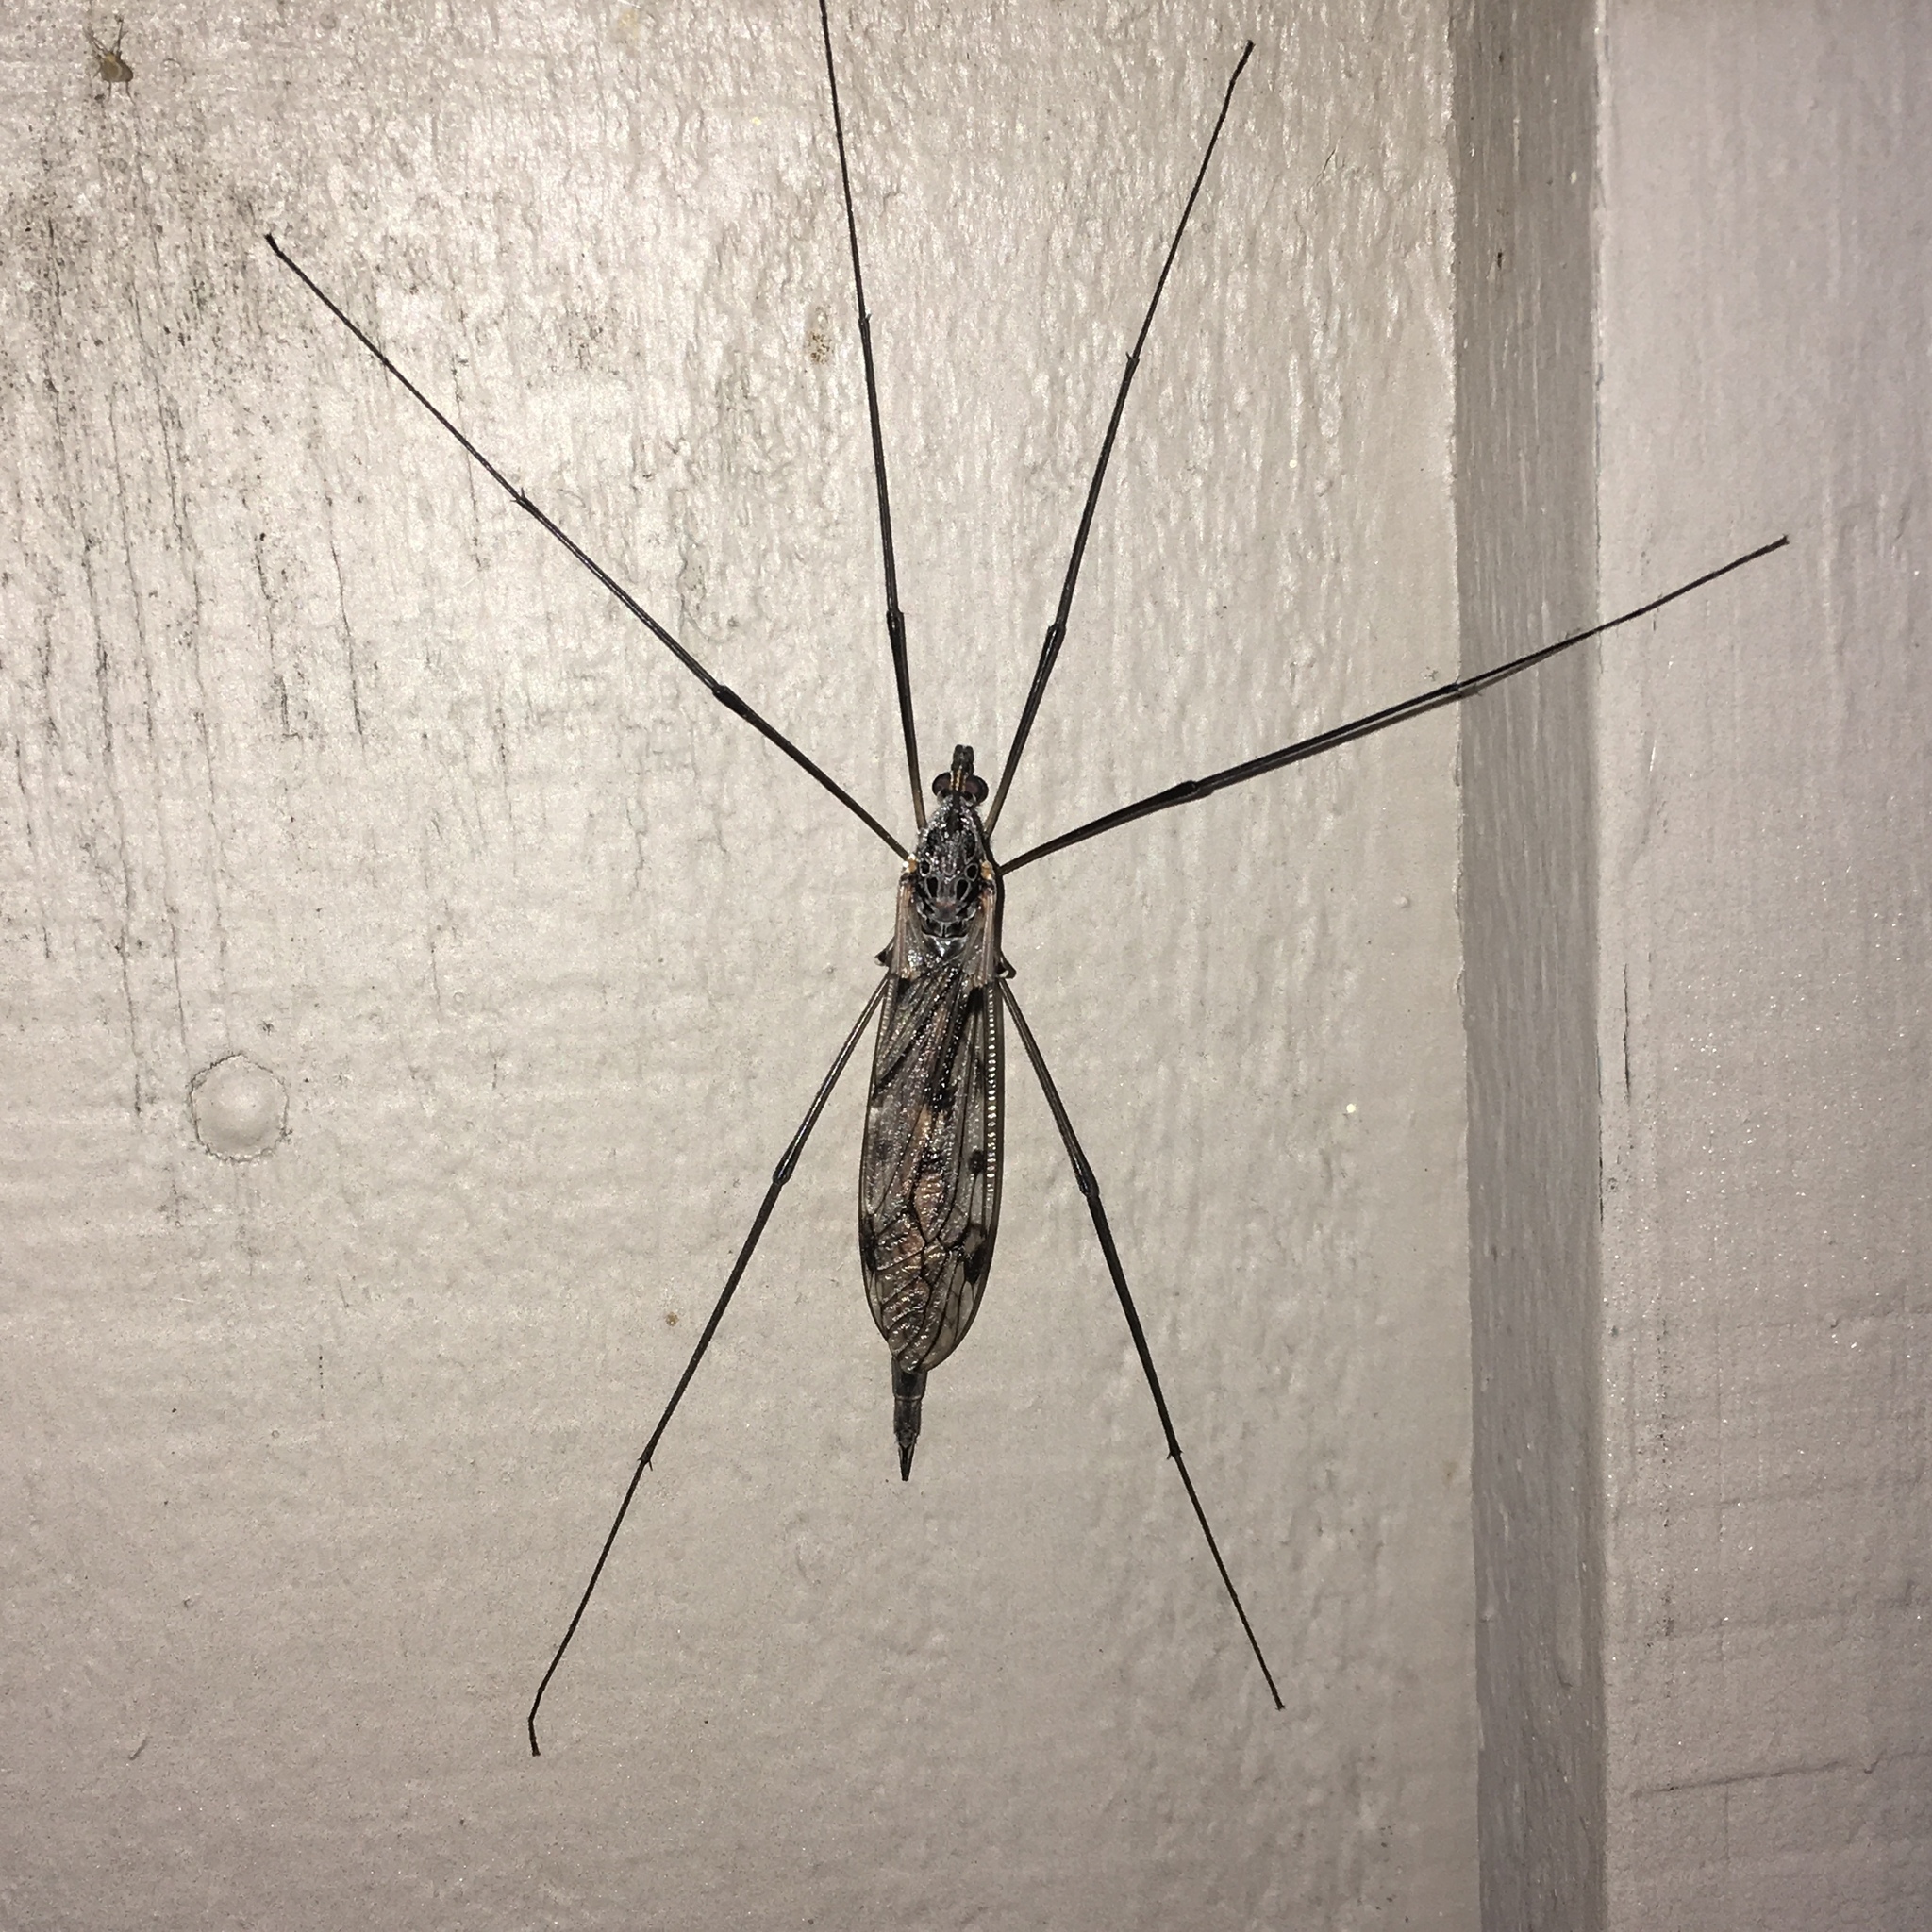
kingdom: Animalia
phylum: Arthropoda
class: Insecta
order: Diptera
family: Tipulidae
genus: Tipula
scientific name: Tipula metacomet
